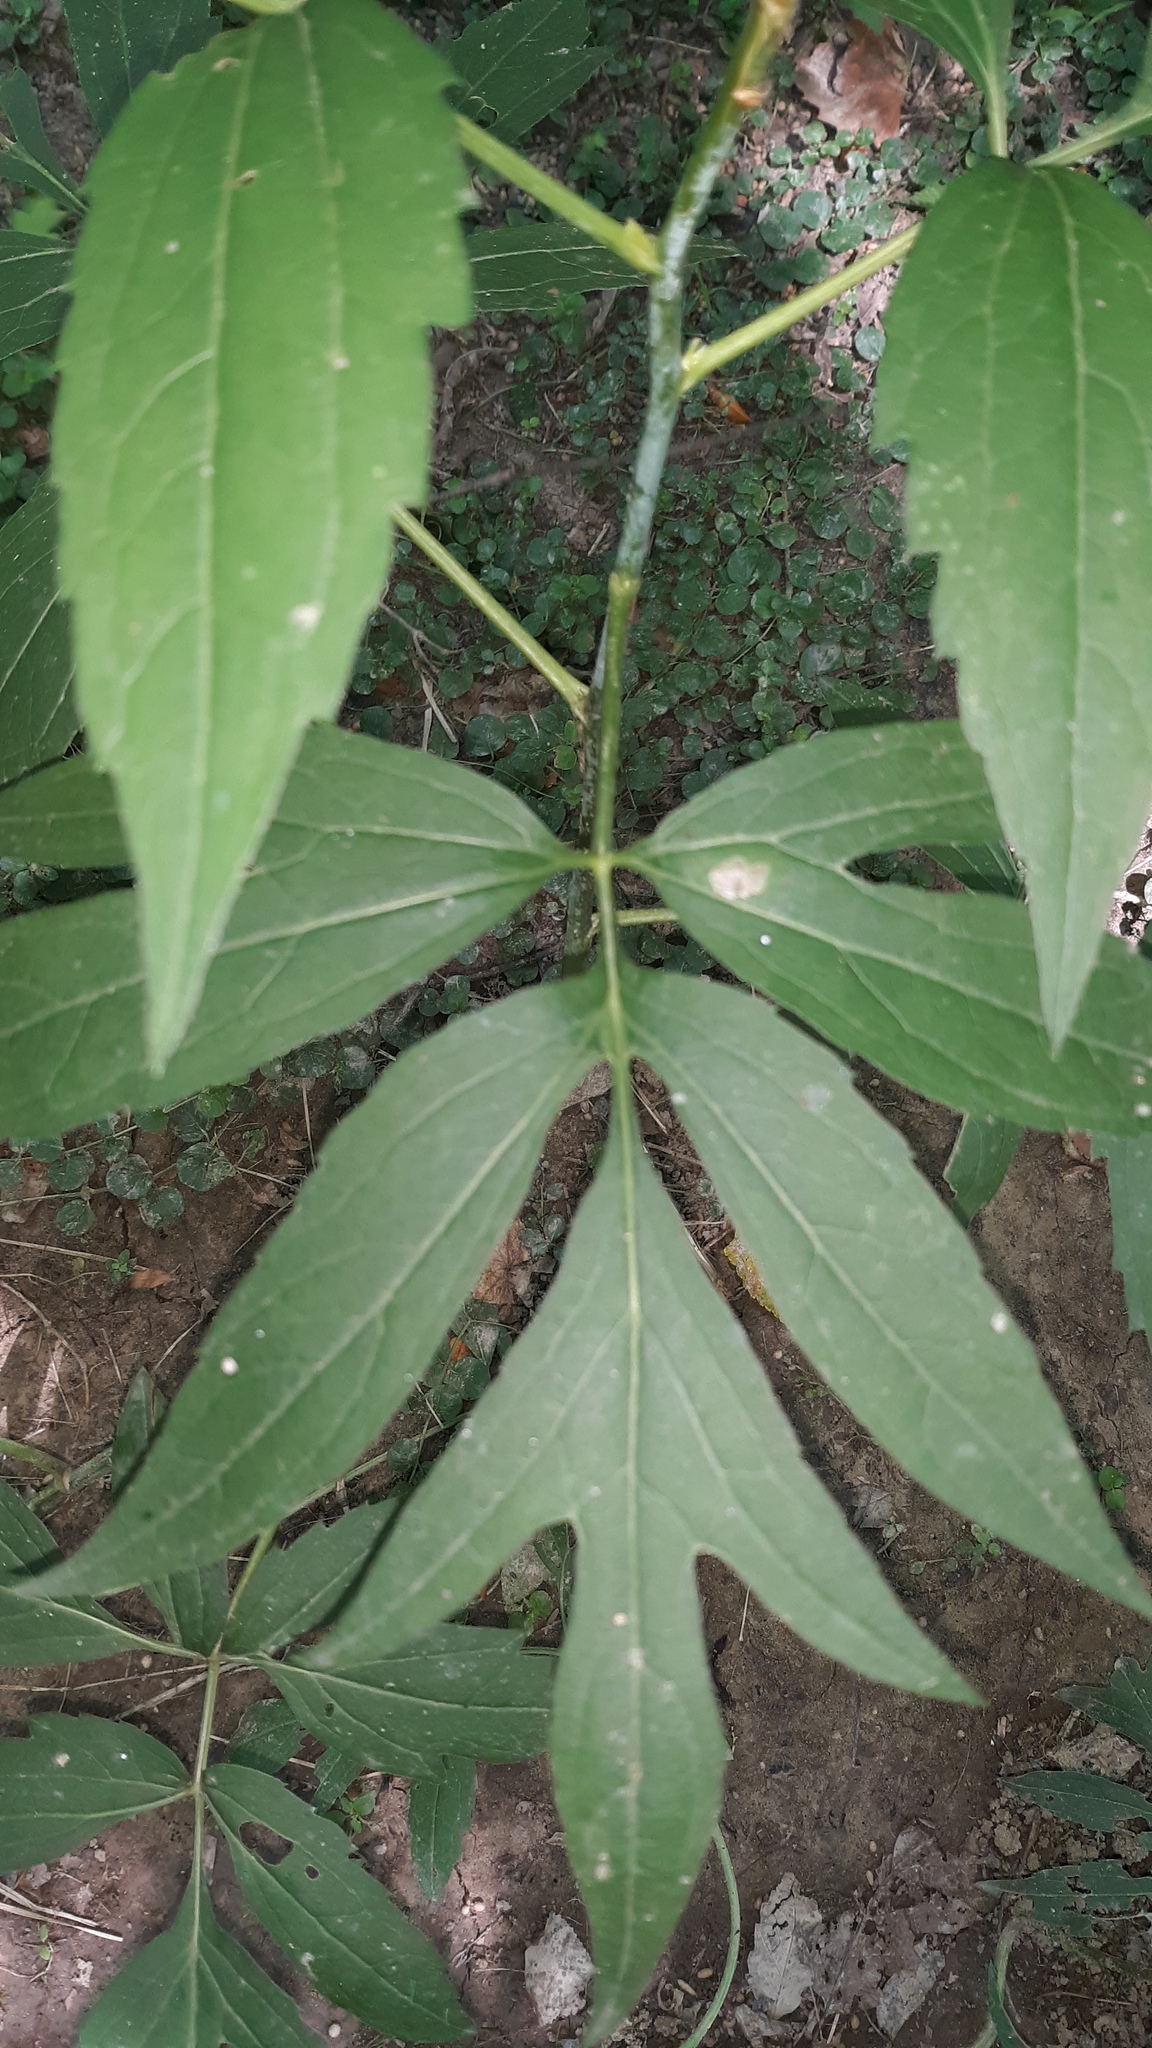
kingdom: Plantae
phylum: Tracheophyta
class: Magnoliopsida
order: Asterales
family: Asteraceae
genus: Rudbeckia
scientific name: Rudbeckia laciniata
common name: Coneflower
